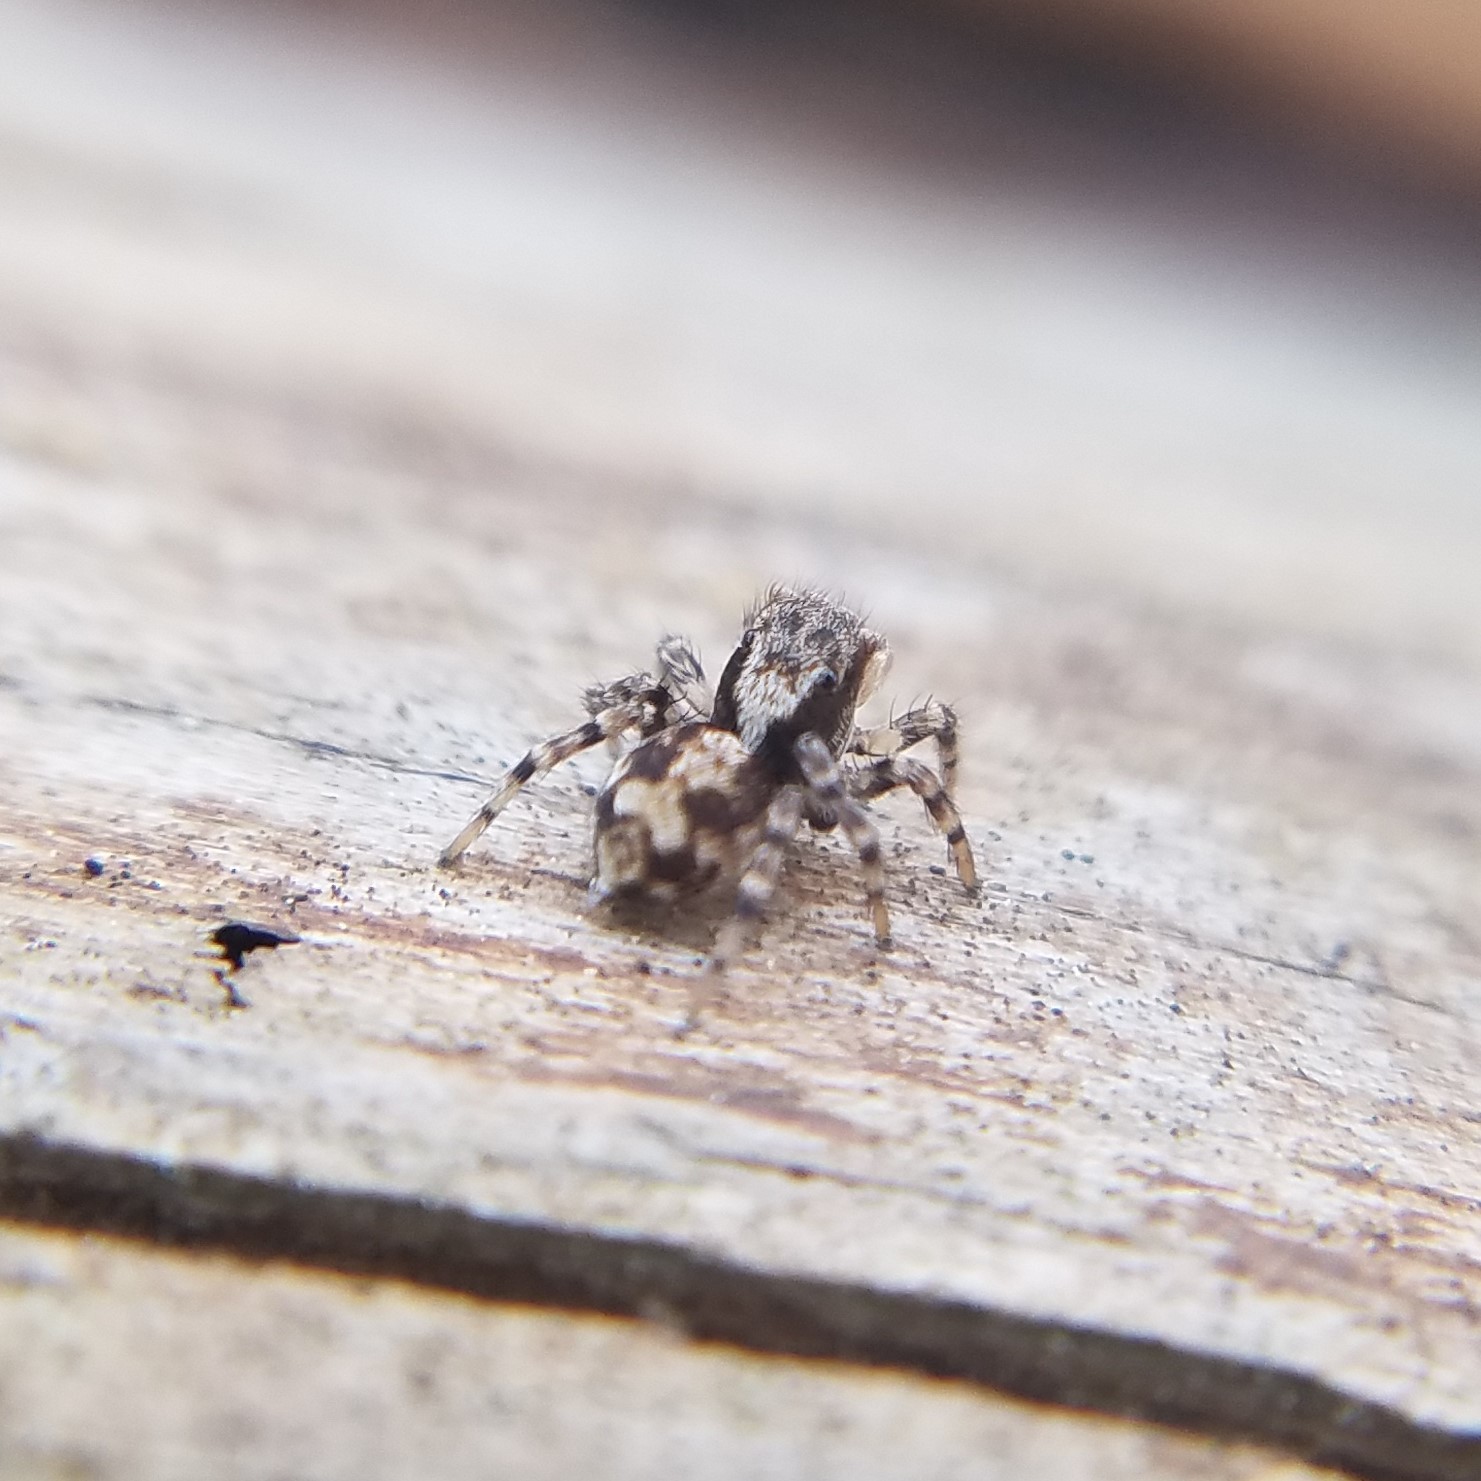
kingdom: Animalia
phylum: Arthropoda
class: Arachnida
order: Araneae
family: Salticidae
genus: Naphrys
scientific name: Naphrys pulex
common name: Flea jumping spider
